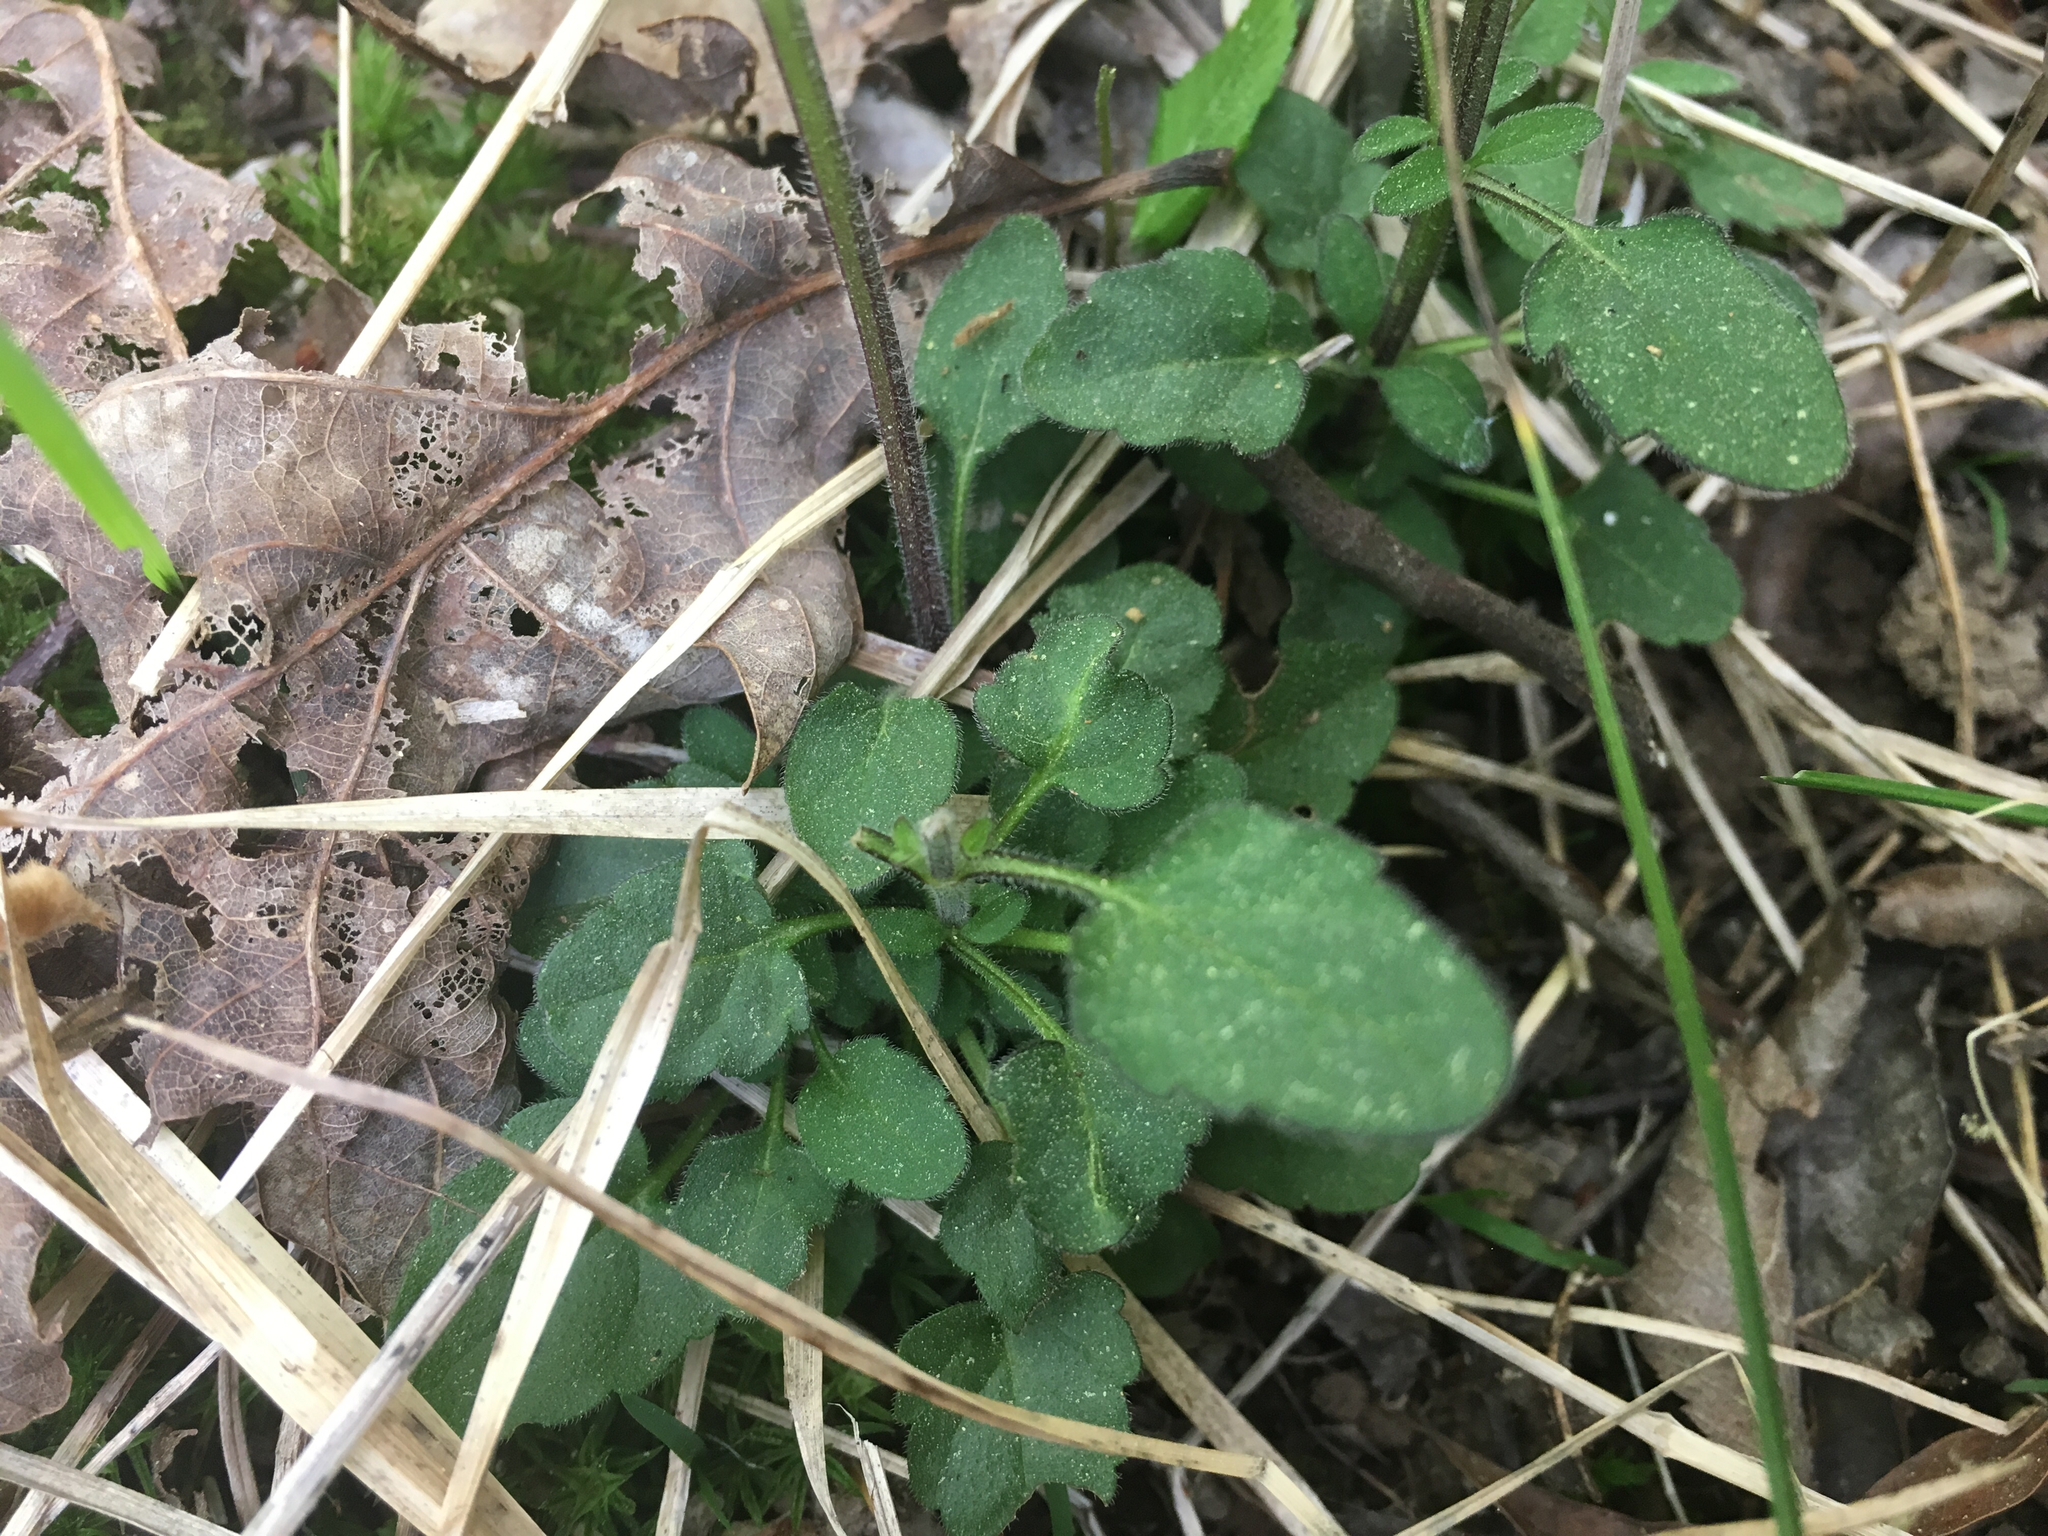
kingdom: Plantae
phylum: Tracheophyta
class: Magnoliopsida
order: Lamiales
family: Lamiaceae
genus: Scutellaria
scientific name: Scutellaria integrifolia
